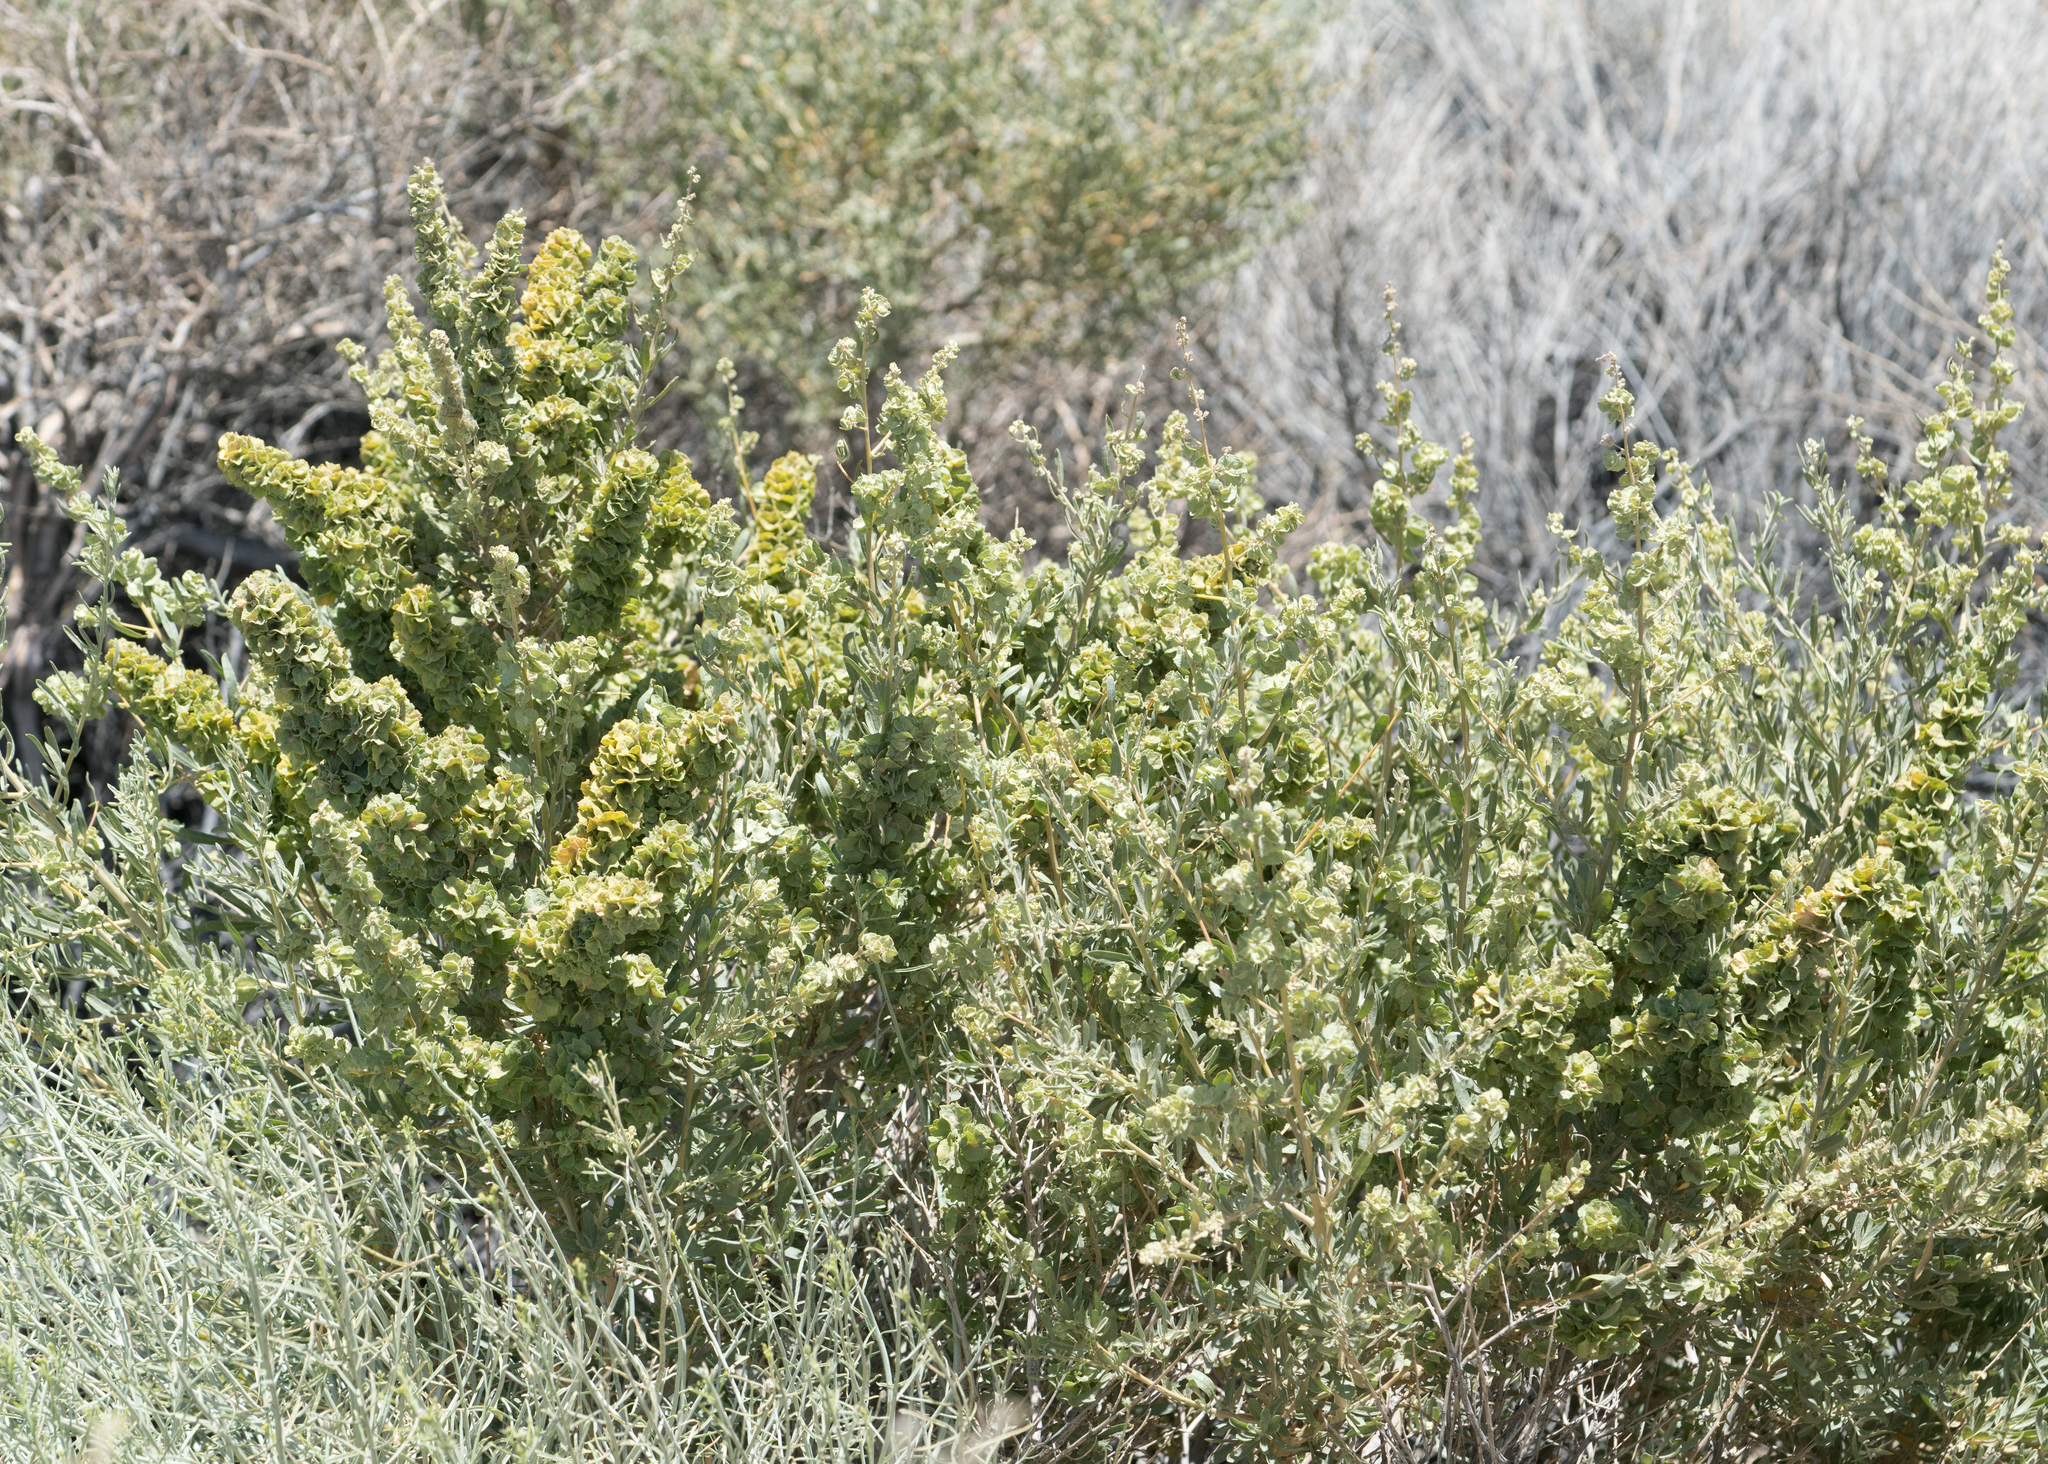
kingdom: Plantae
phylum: Tracheophyta
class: Magnoliopsida
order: Caryophyllales
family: Amaranthaceae
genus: Atriplex
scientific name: Atriplex canescens
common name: Four-wing saltbush
